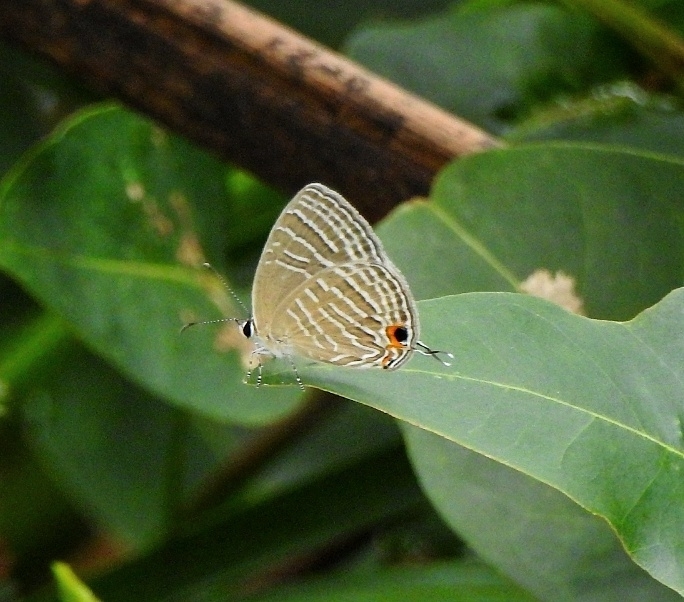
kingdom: Animalia
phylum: Arthropoda
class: Insecta
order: Lepidoptera
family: Lycaenidae
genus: Jamides
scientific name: Jamides celeno
